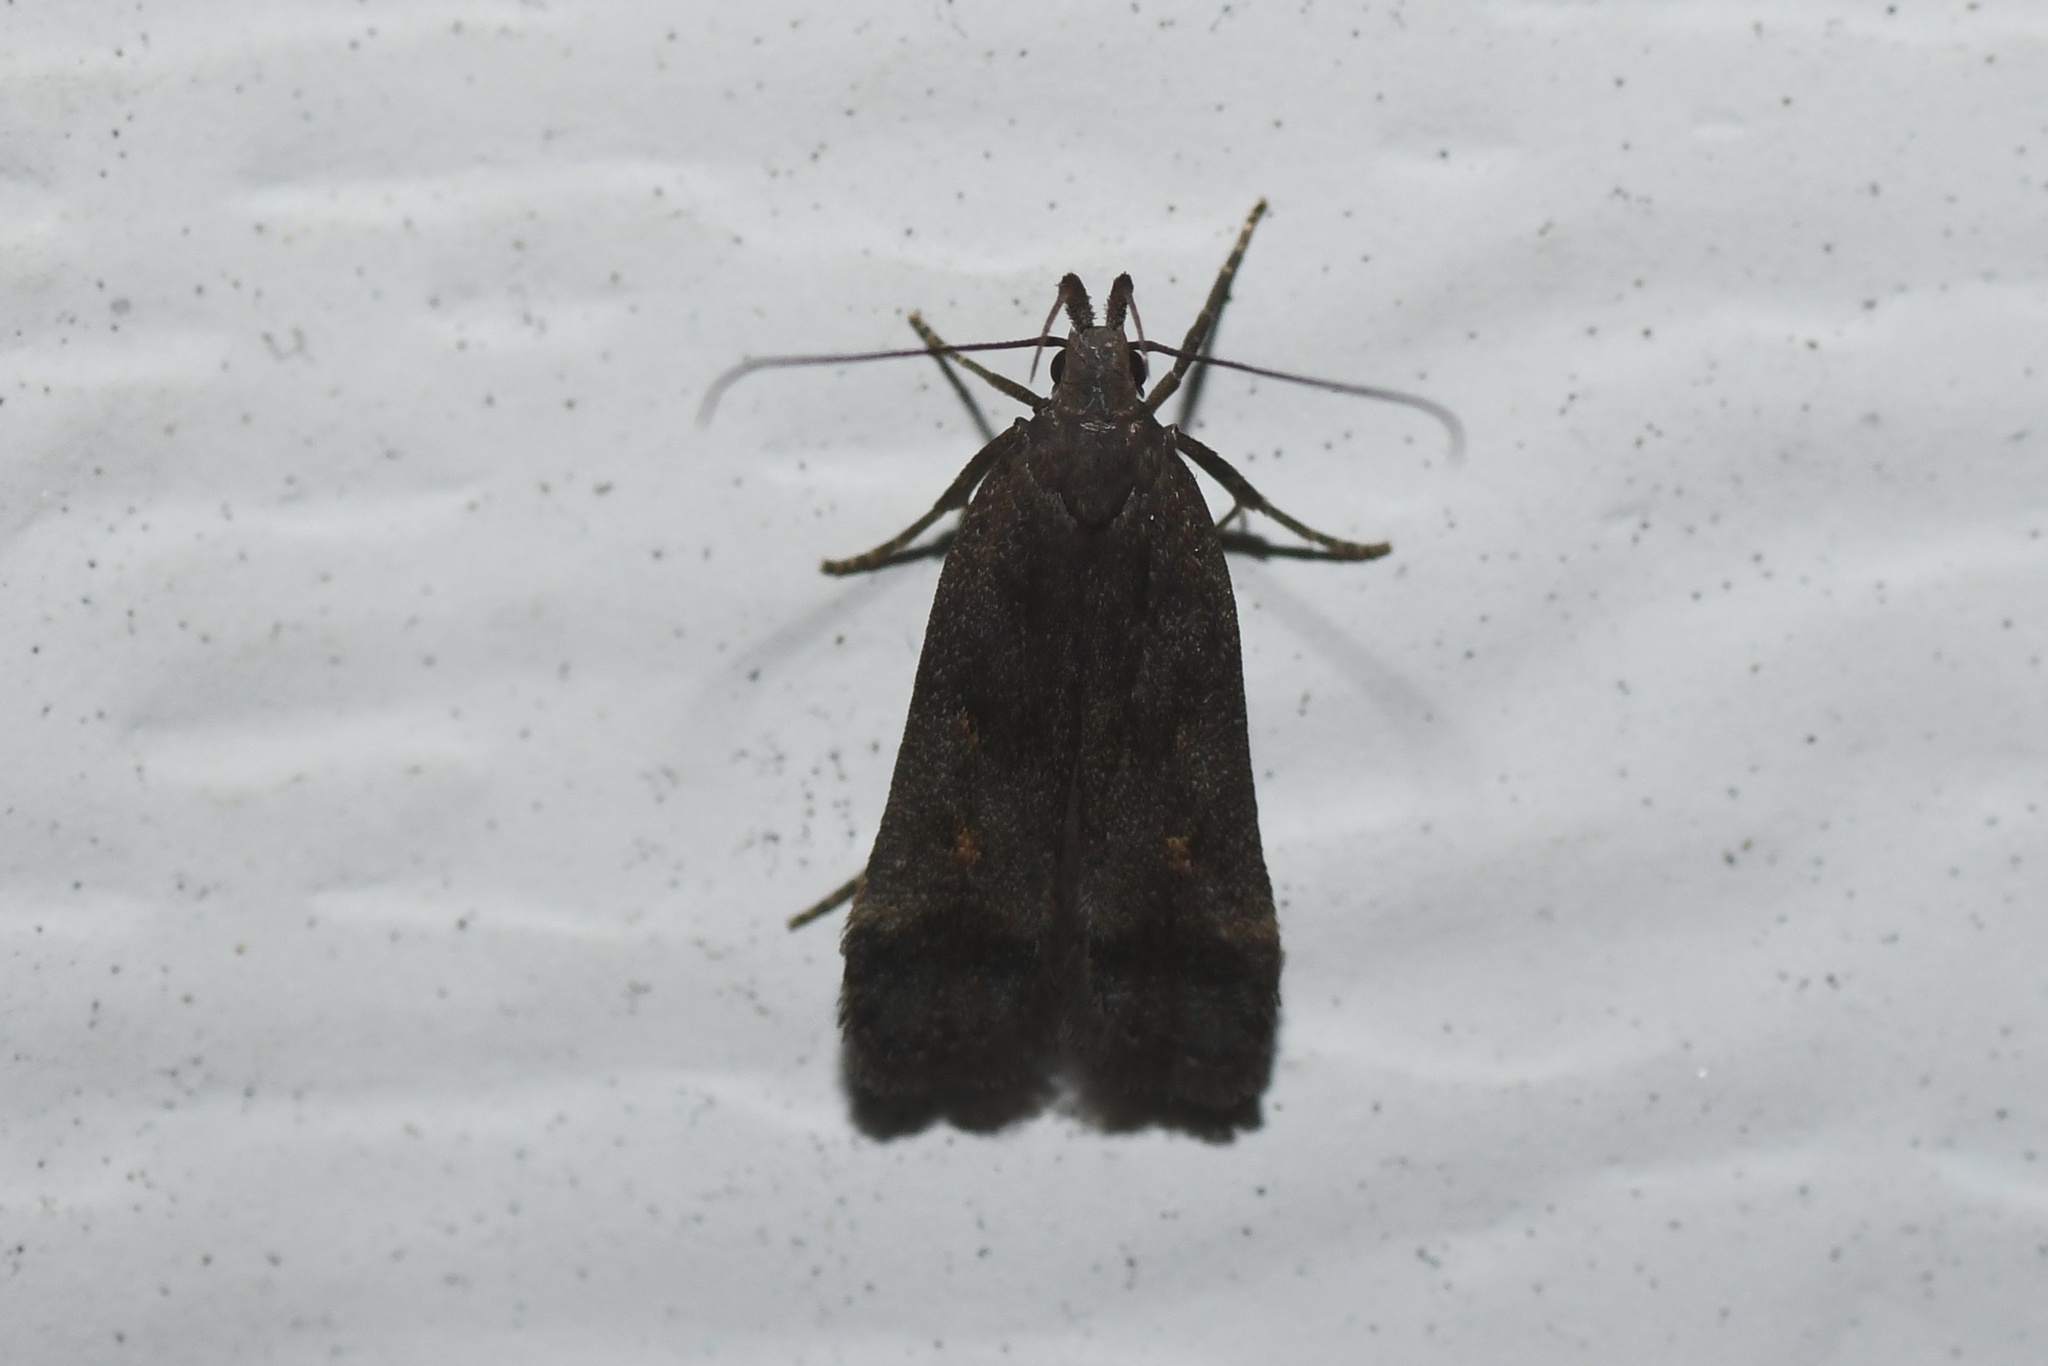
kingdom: Animalia
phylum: Arthropoda
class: Insecta
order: Lepidoptera
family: Gelechiidae
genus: Dichomeris
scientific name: Dichomeris leuconotella
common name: Two-spotted dichomeris moth
